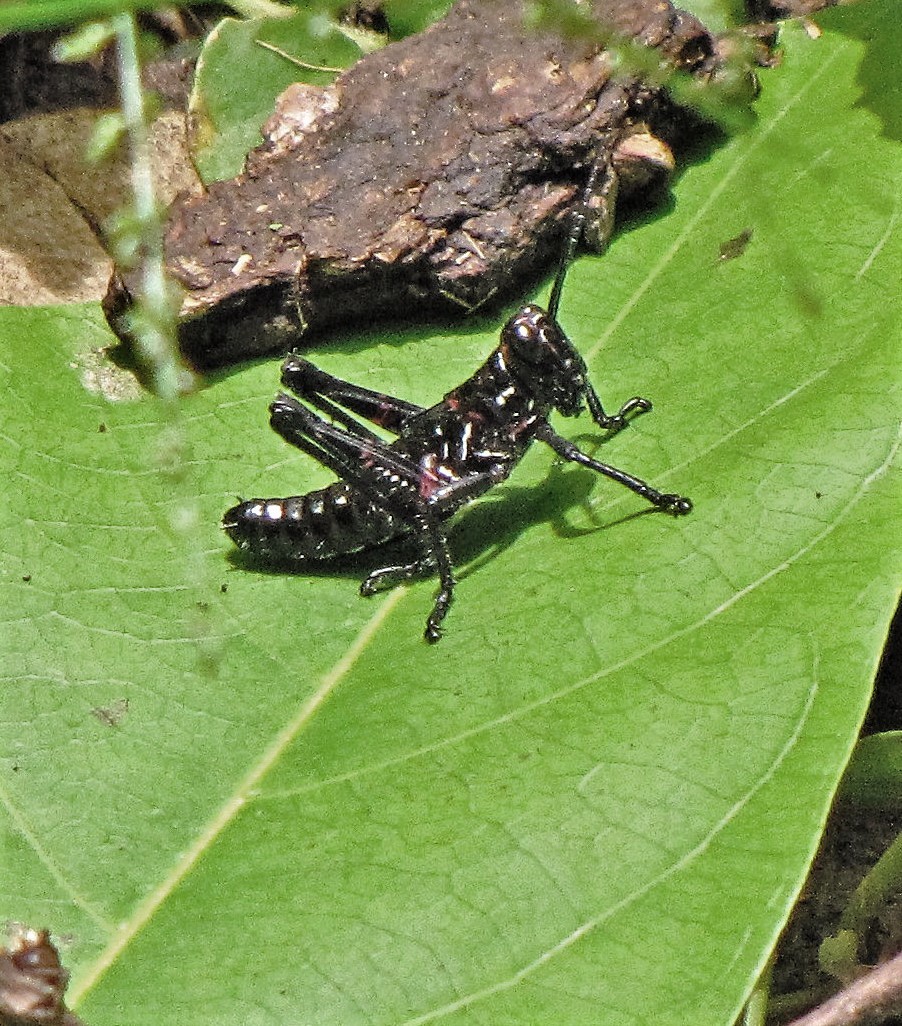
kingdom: Animalia
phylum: Arthropoda
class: Insecta
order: Orthoptera
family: Romaleidae
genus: Chromacris
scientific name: Chromacris speciosa
